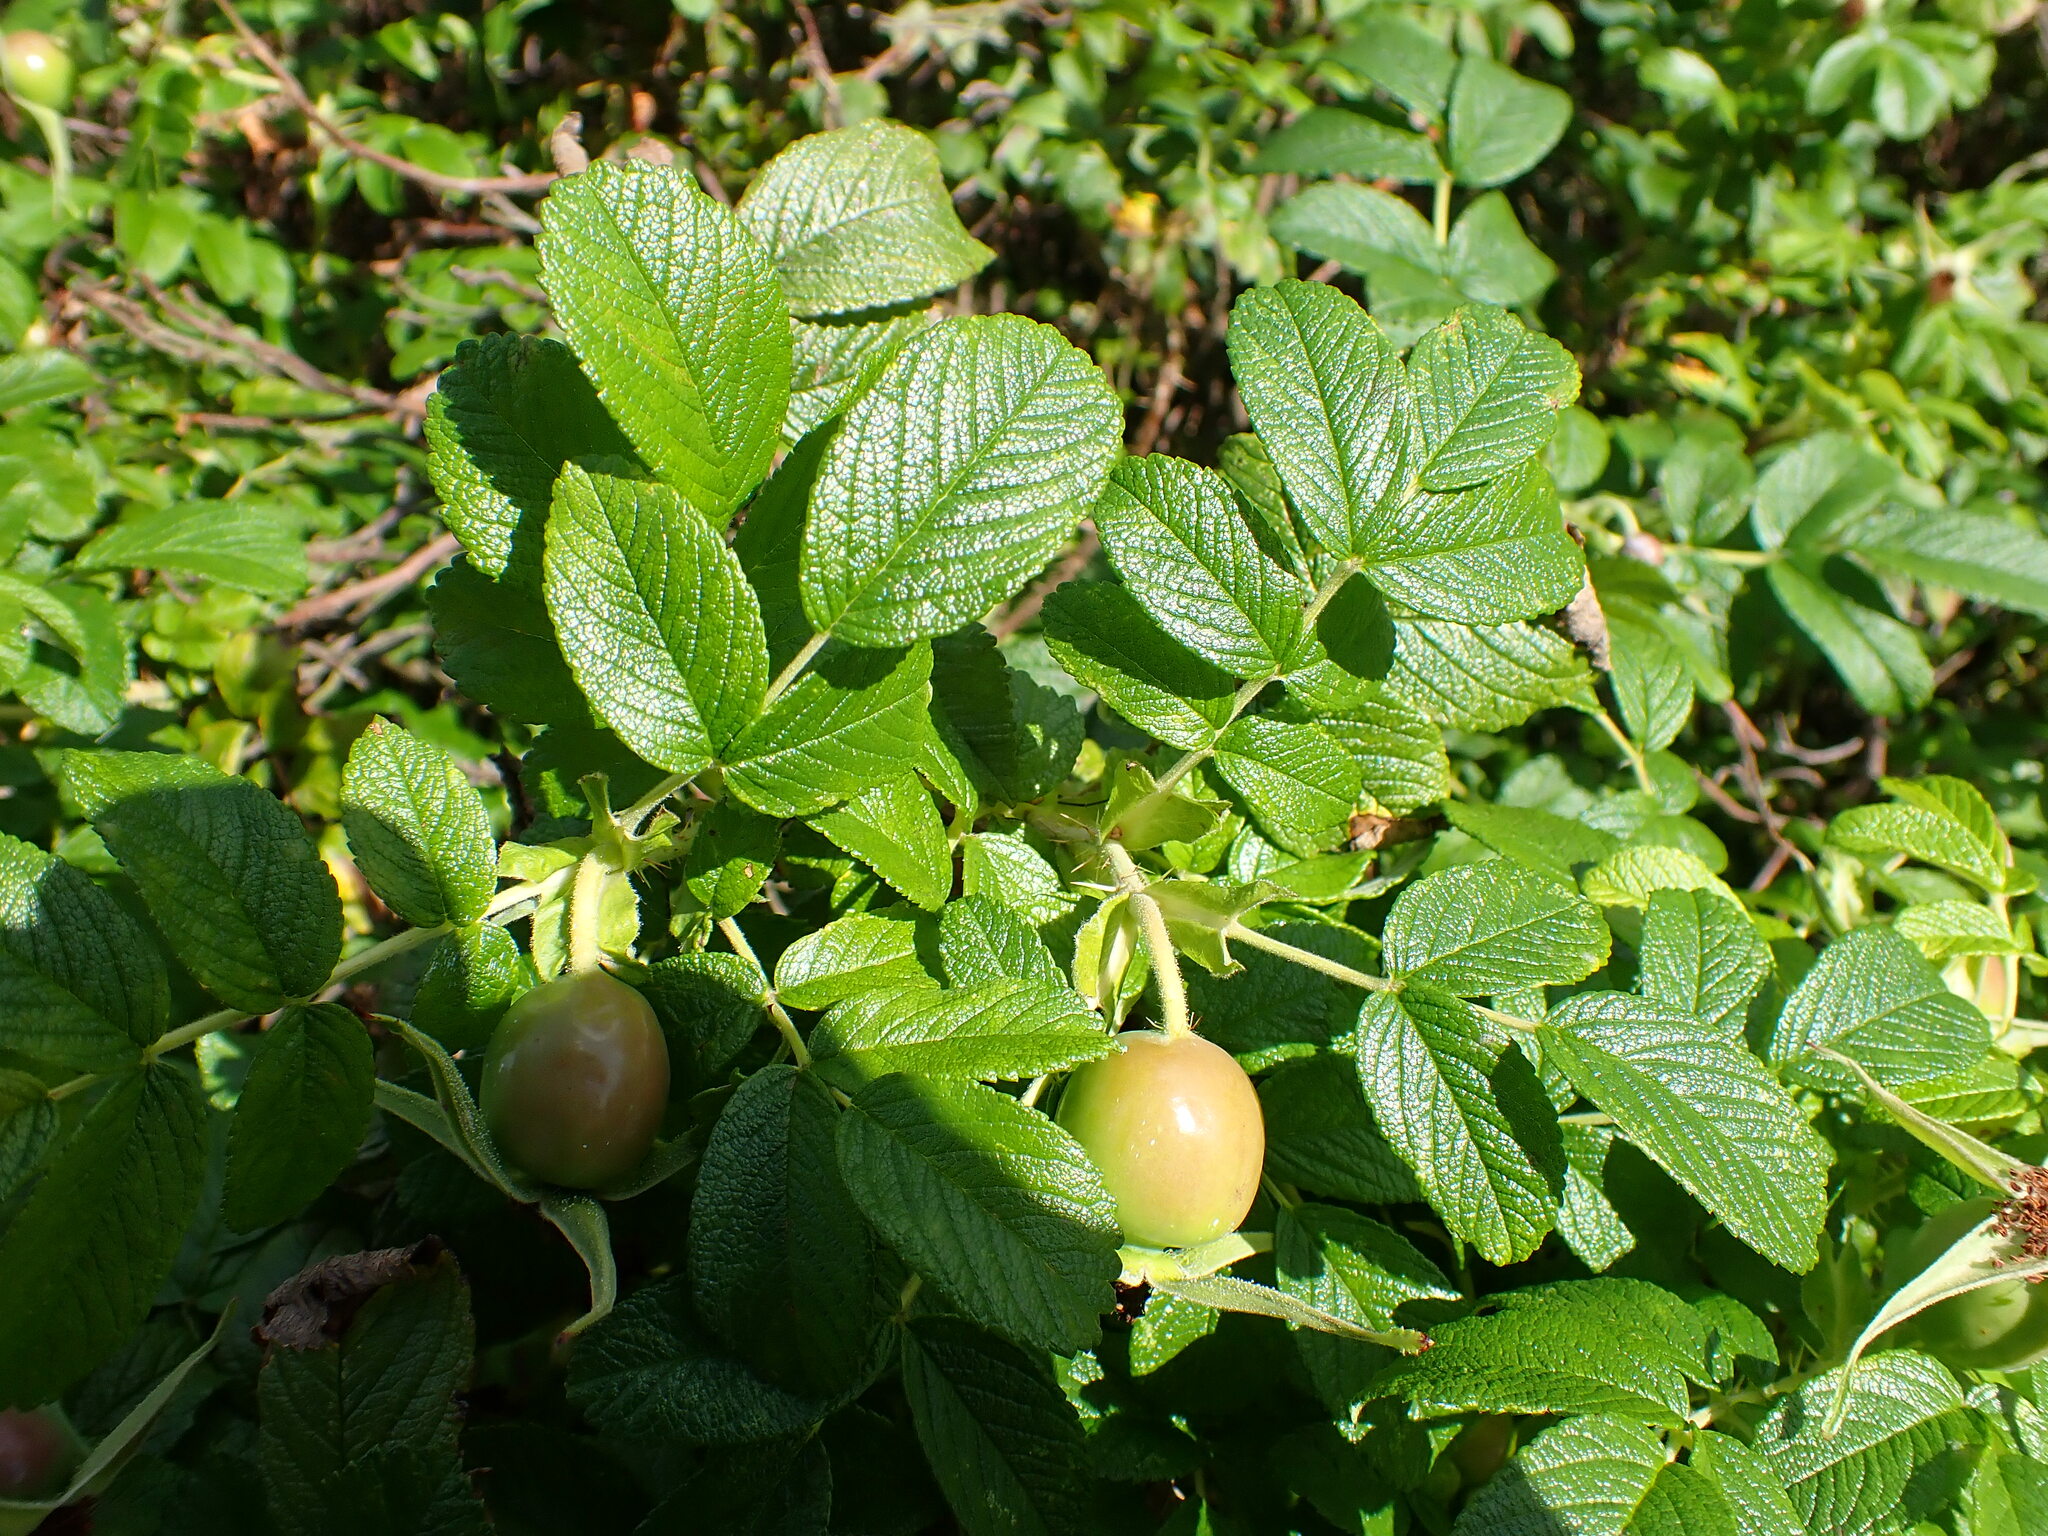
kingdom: Plantae
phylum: Tracheophyta
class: Magnoliopsida
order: Rosales
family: Rosaceae
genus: Rosa
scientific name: Rosa rugosa
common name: Japanese rose
